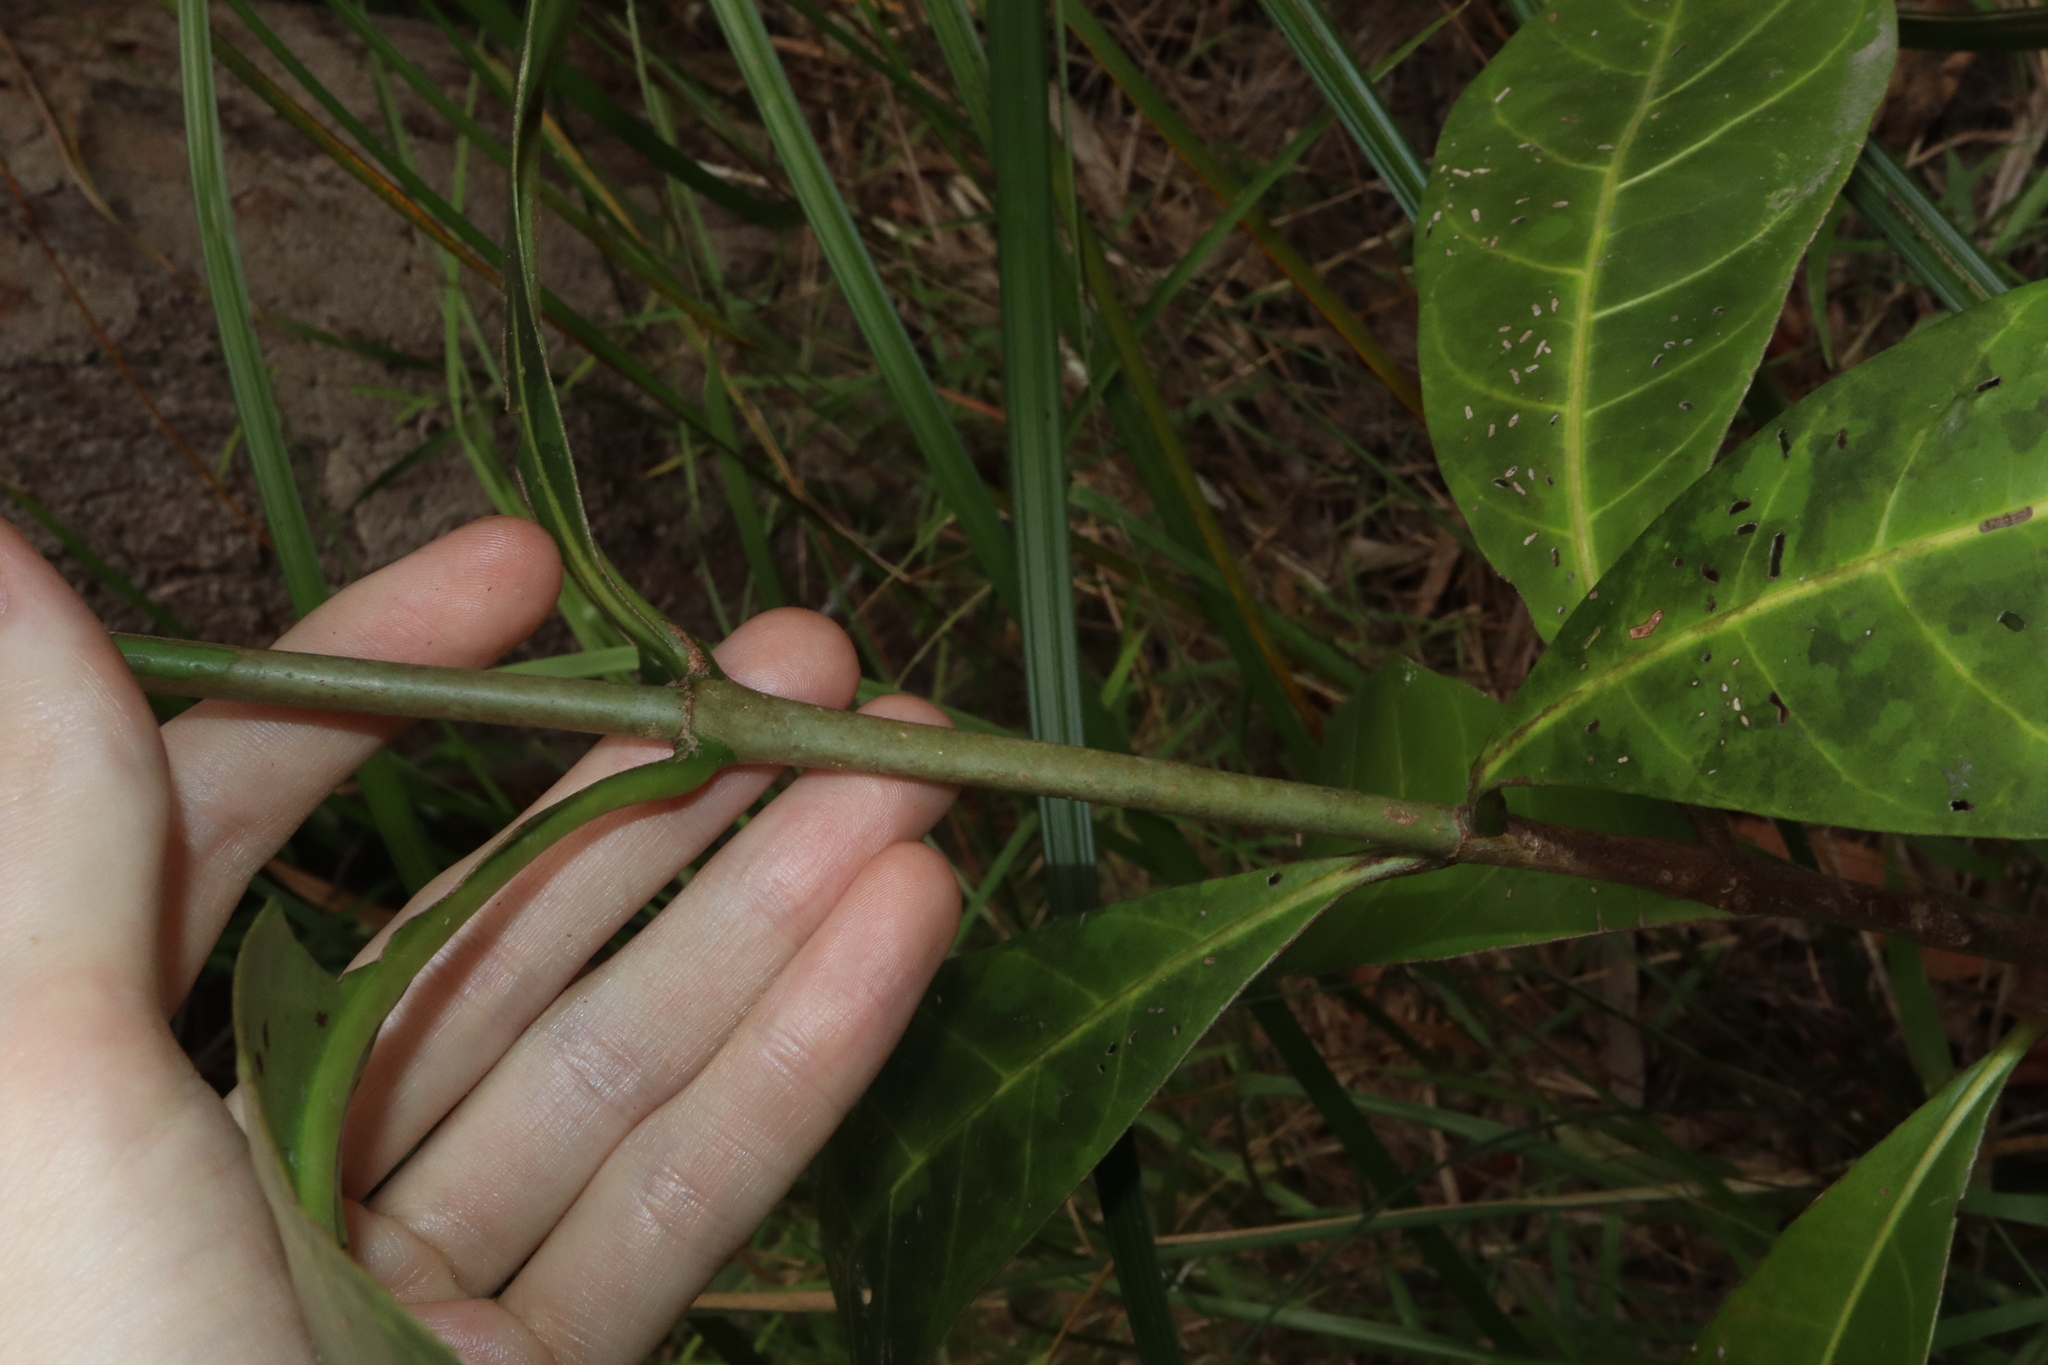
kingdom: Plantae
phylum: Tracheophyta
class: Magnoliopsida
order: Gentianales
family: Rubiaceae
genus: Atractocarpus
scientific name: Atractocarpus fitzalanii
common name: Randia
